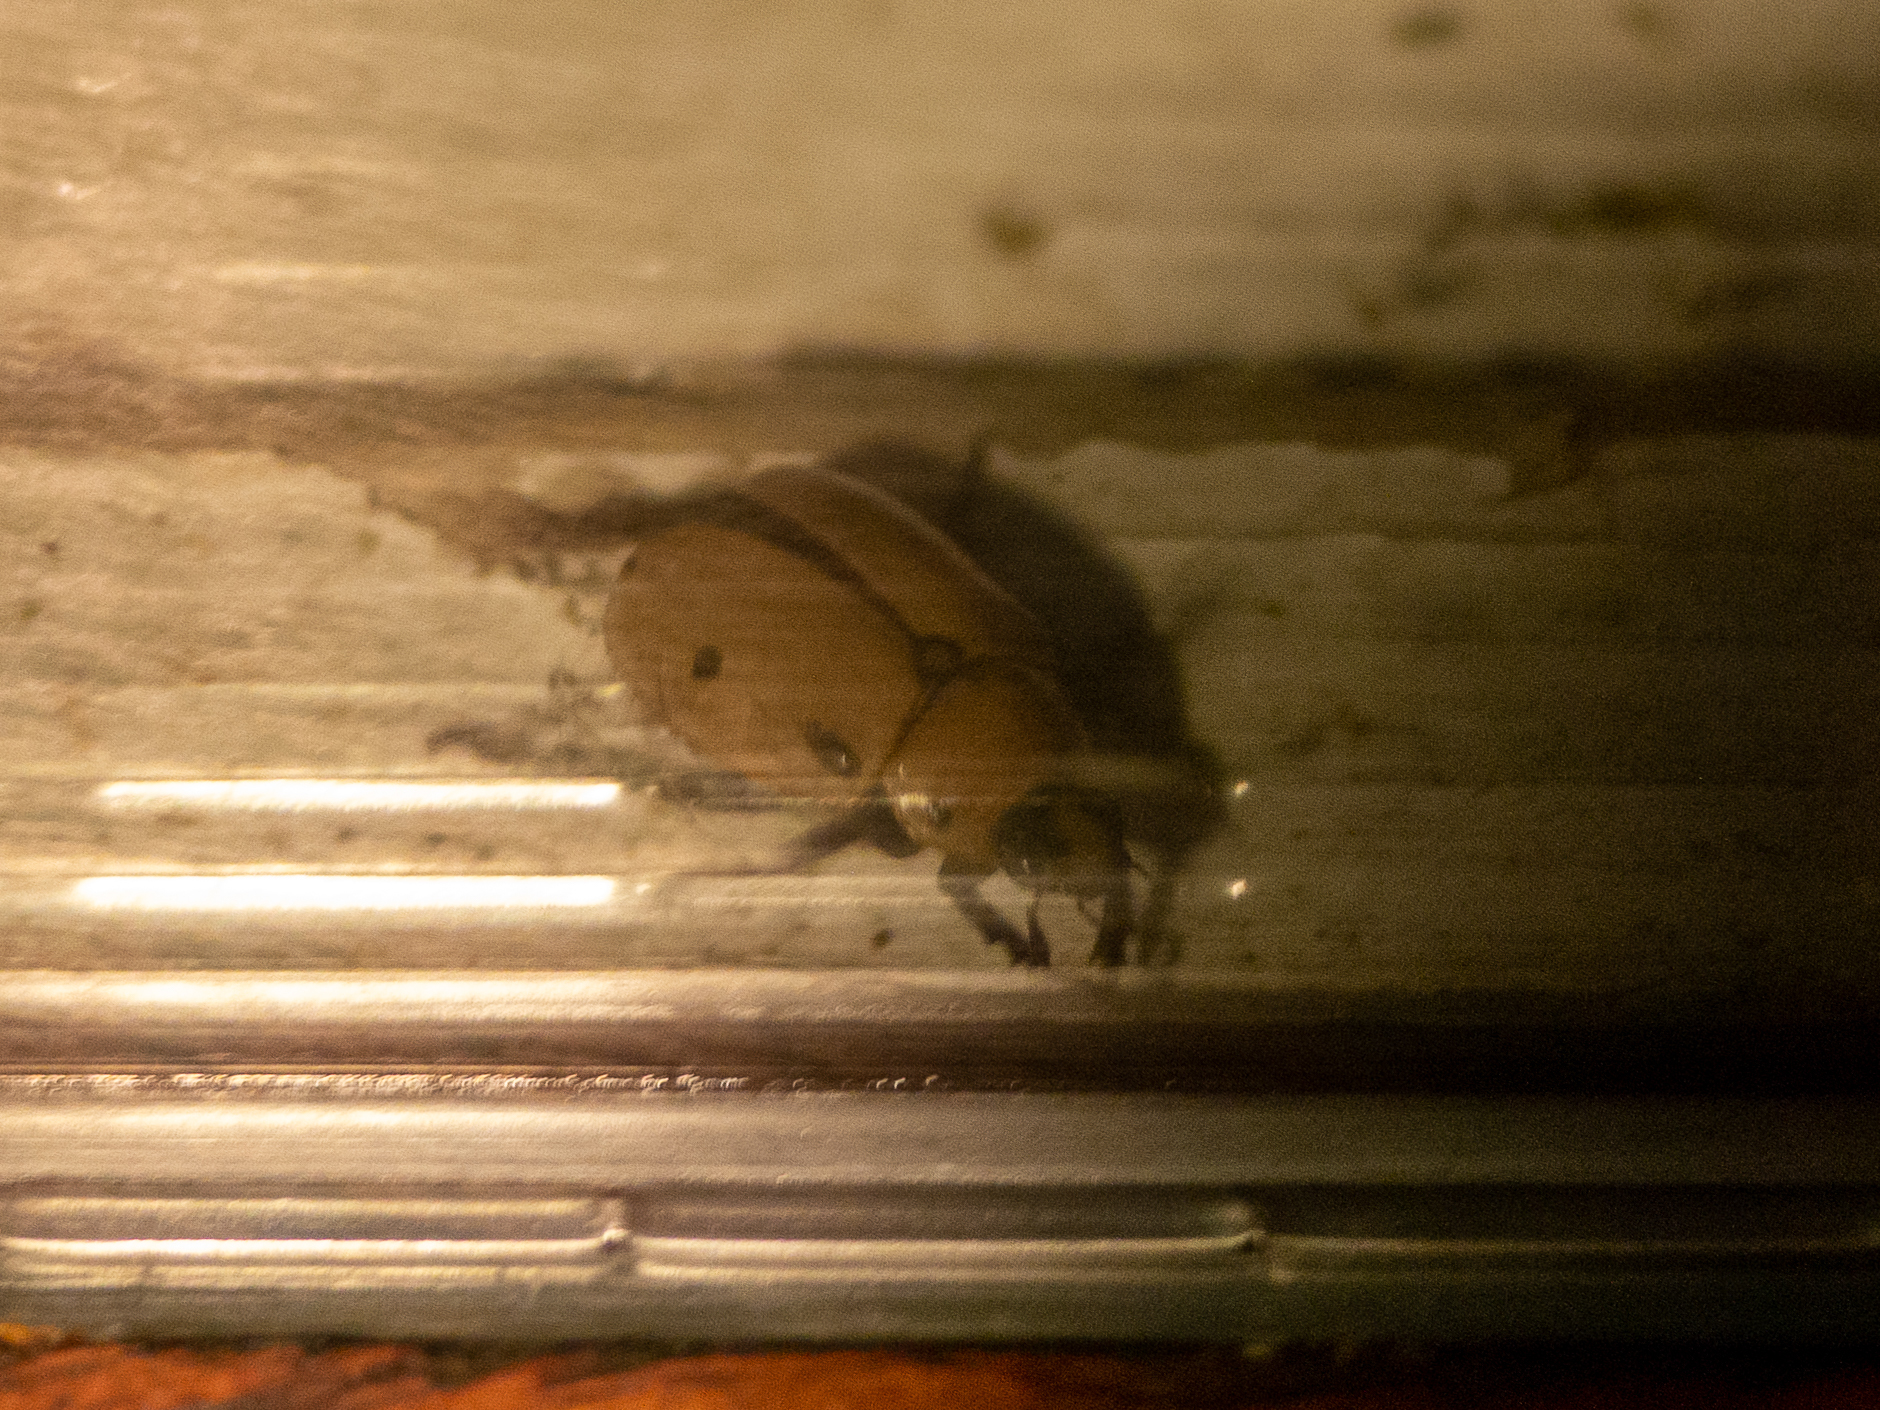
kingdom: Animalia
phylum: Arthropoda
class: Insecta
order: Coleoptera
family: Scarabaeidae
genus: Pelidnota
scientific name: Pelidnota punctata
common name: Grapevine beetle
